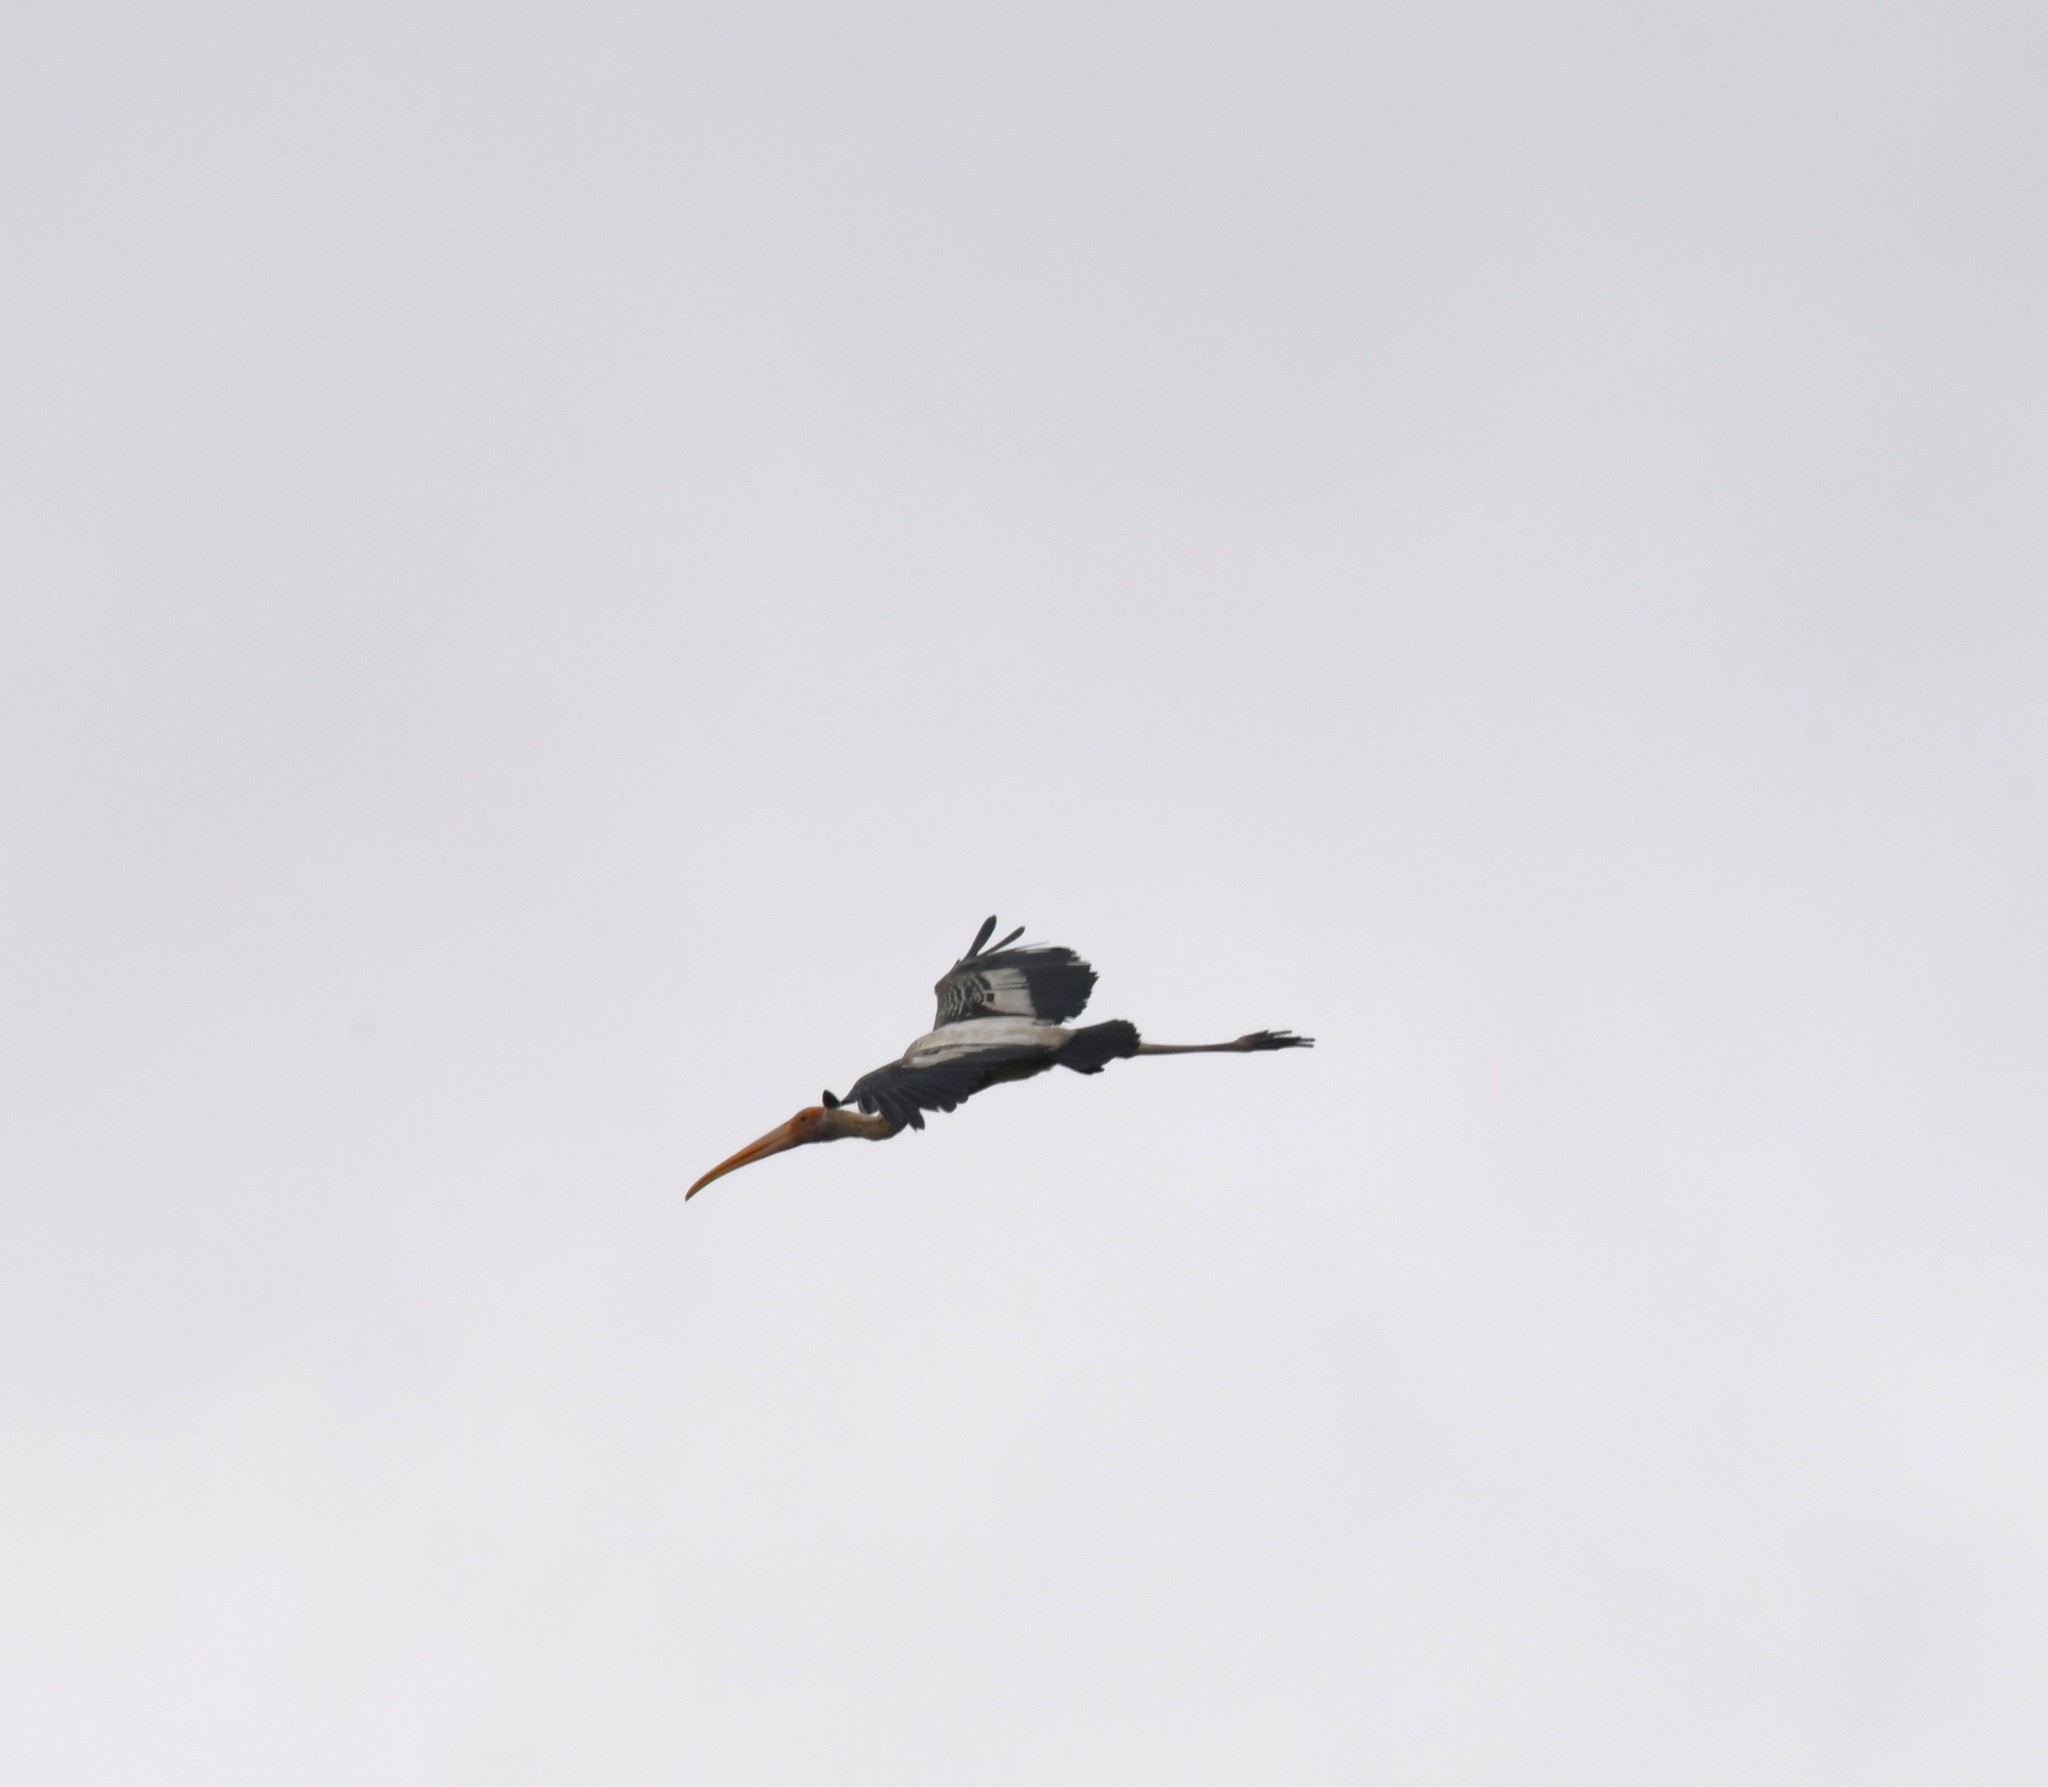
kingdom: Animalia
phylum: Chordata
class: Aves
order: Ciconiiformes
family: Ciconiidae
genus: Mycteria
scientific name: Mycteria leucocephala
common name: Painted stork
